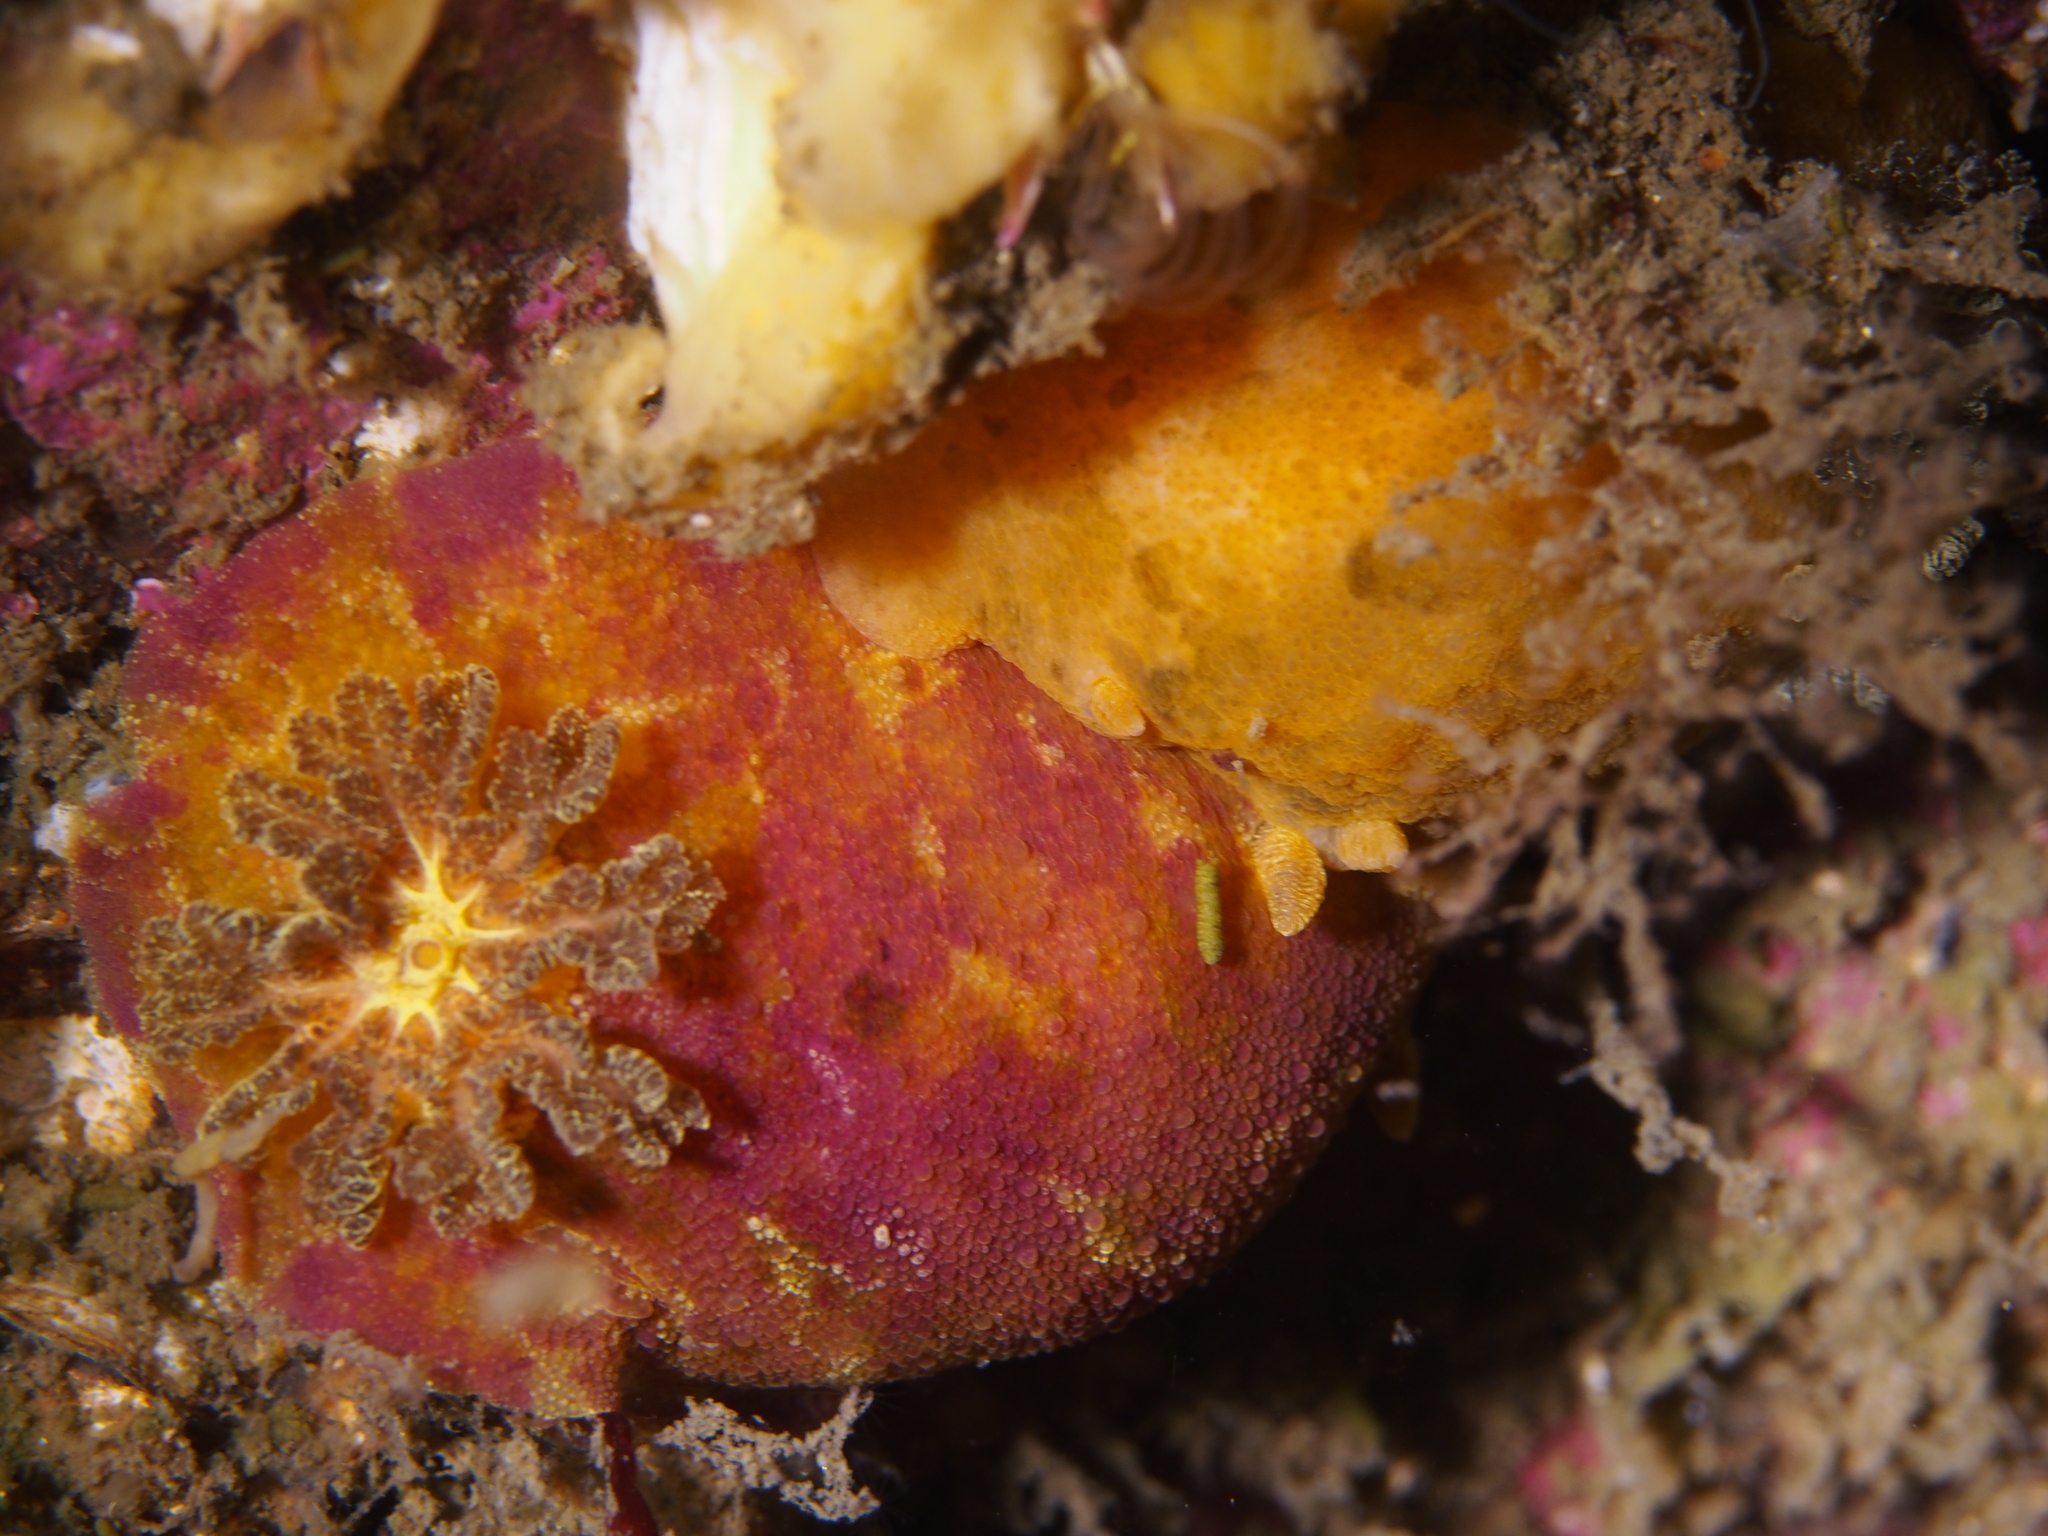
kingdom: Animalia
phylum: Mollusca
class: Gastropoda
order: Nudibranchia
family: Dorididae
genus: Doris
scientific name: Doris pseudoargus
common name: Sea lemon
